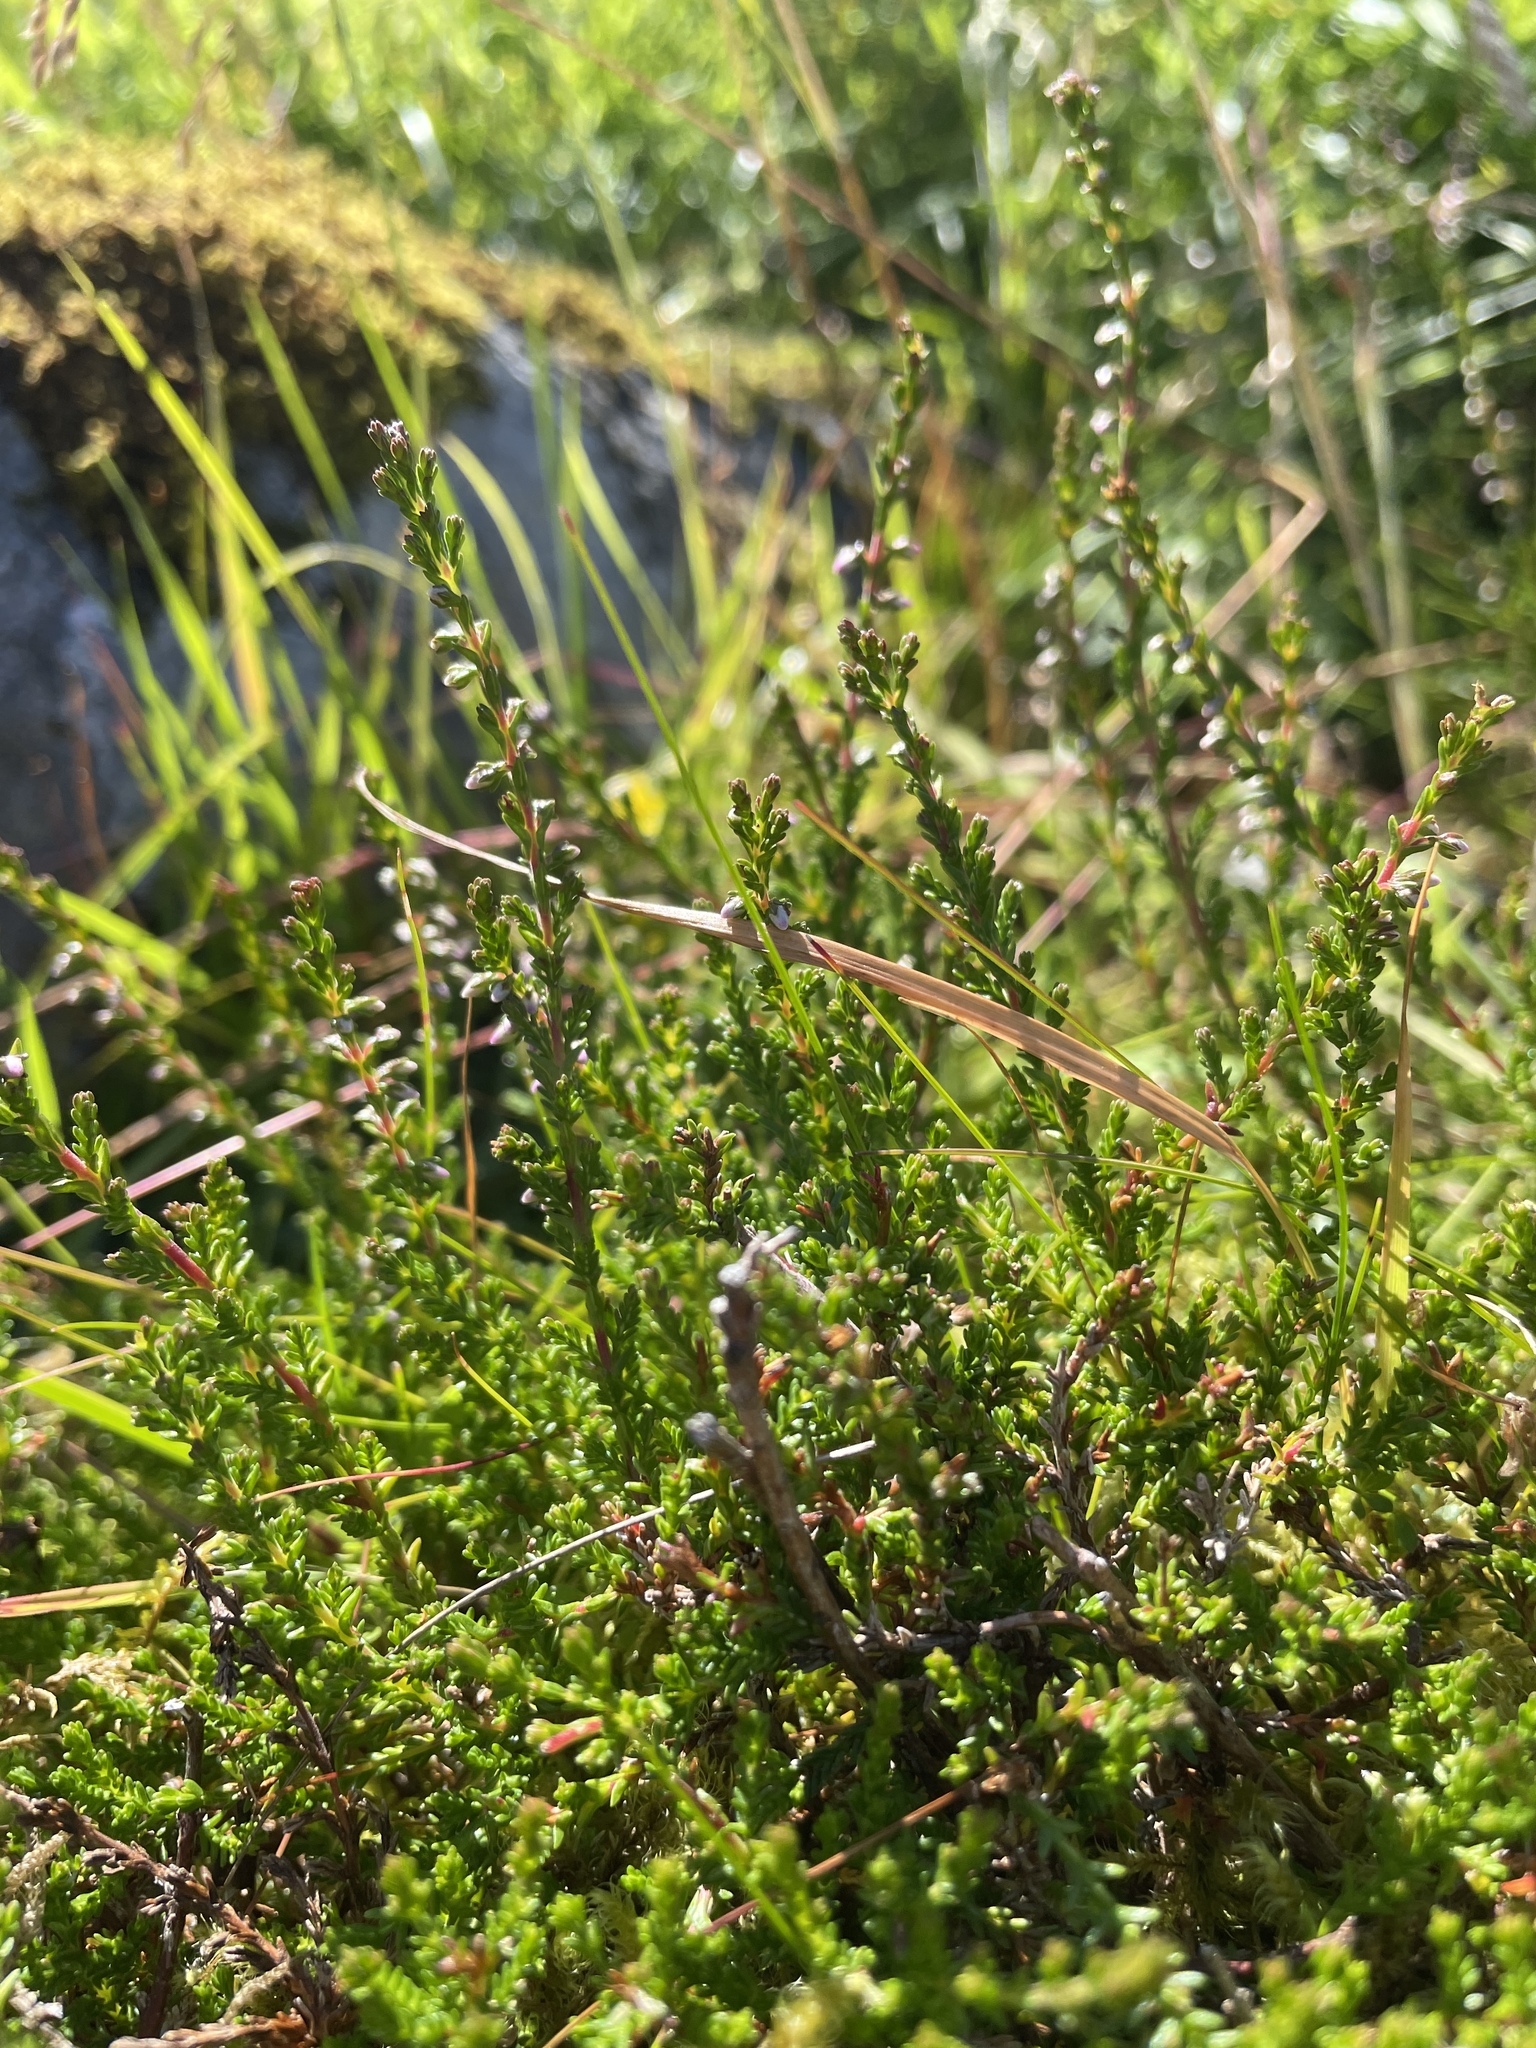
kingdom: Plantae
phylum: Tracheophyta
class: Magnoliopsida
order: Ericales
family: Ericaceae
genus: Calluna
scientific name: Calluna vulgaris
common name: Heather
